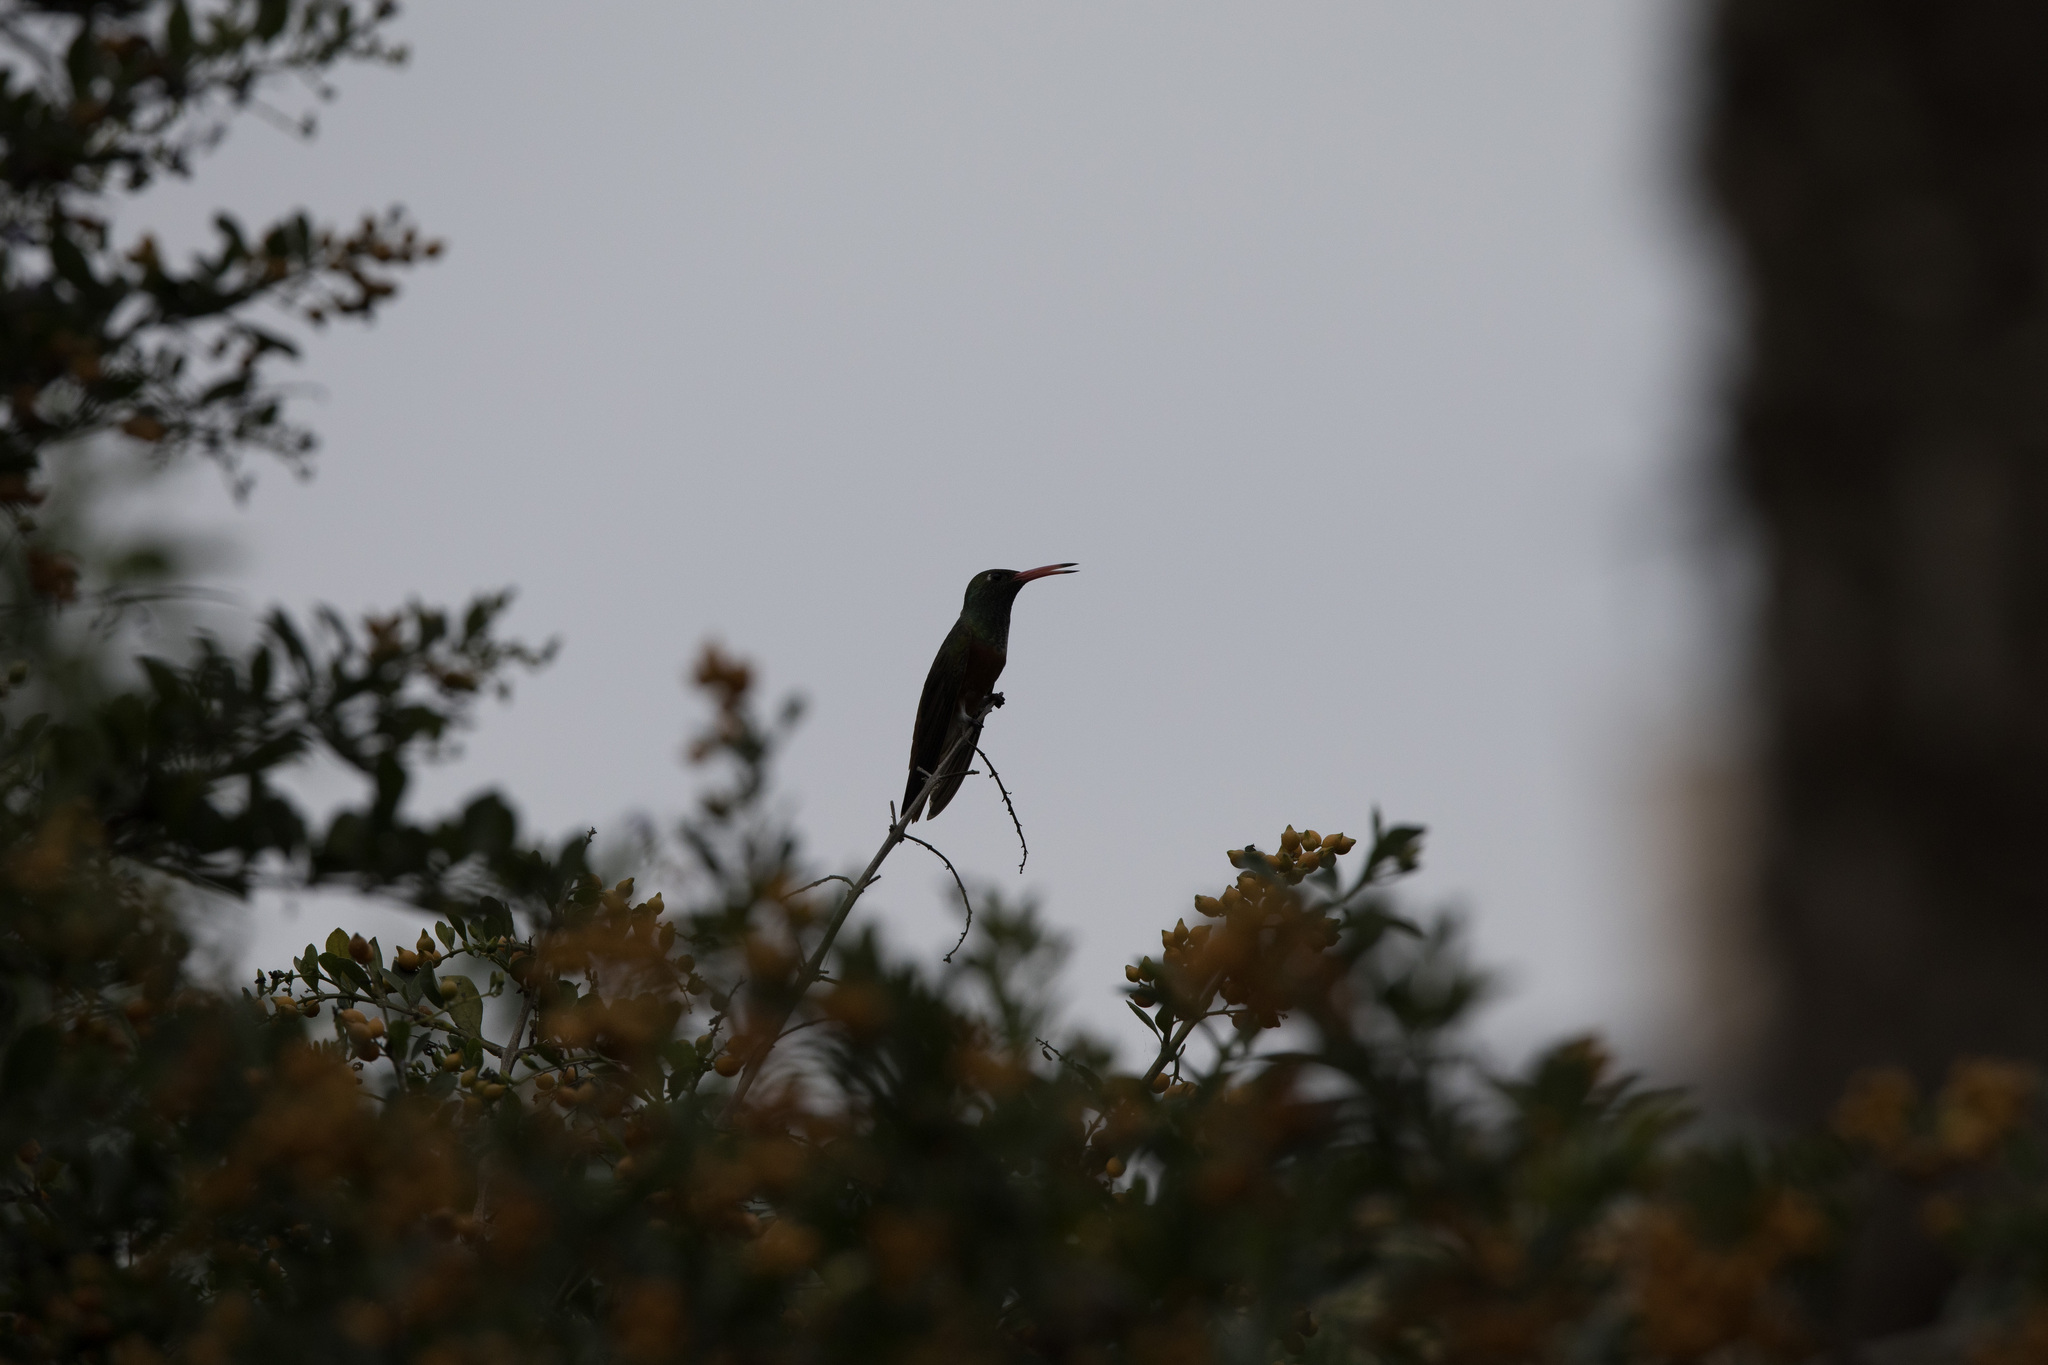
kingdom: Animalia
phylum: Chordata
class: Aves
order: Apodiformes
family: Trochilidae
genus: Amazilis
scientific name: Amazilis amazilia
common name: Amazilia hummingbird
